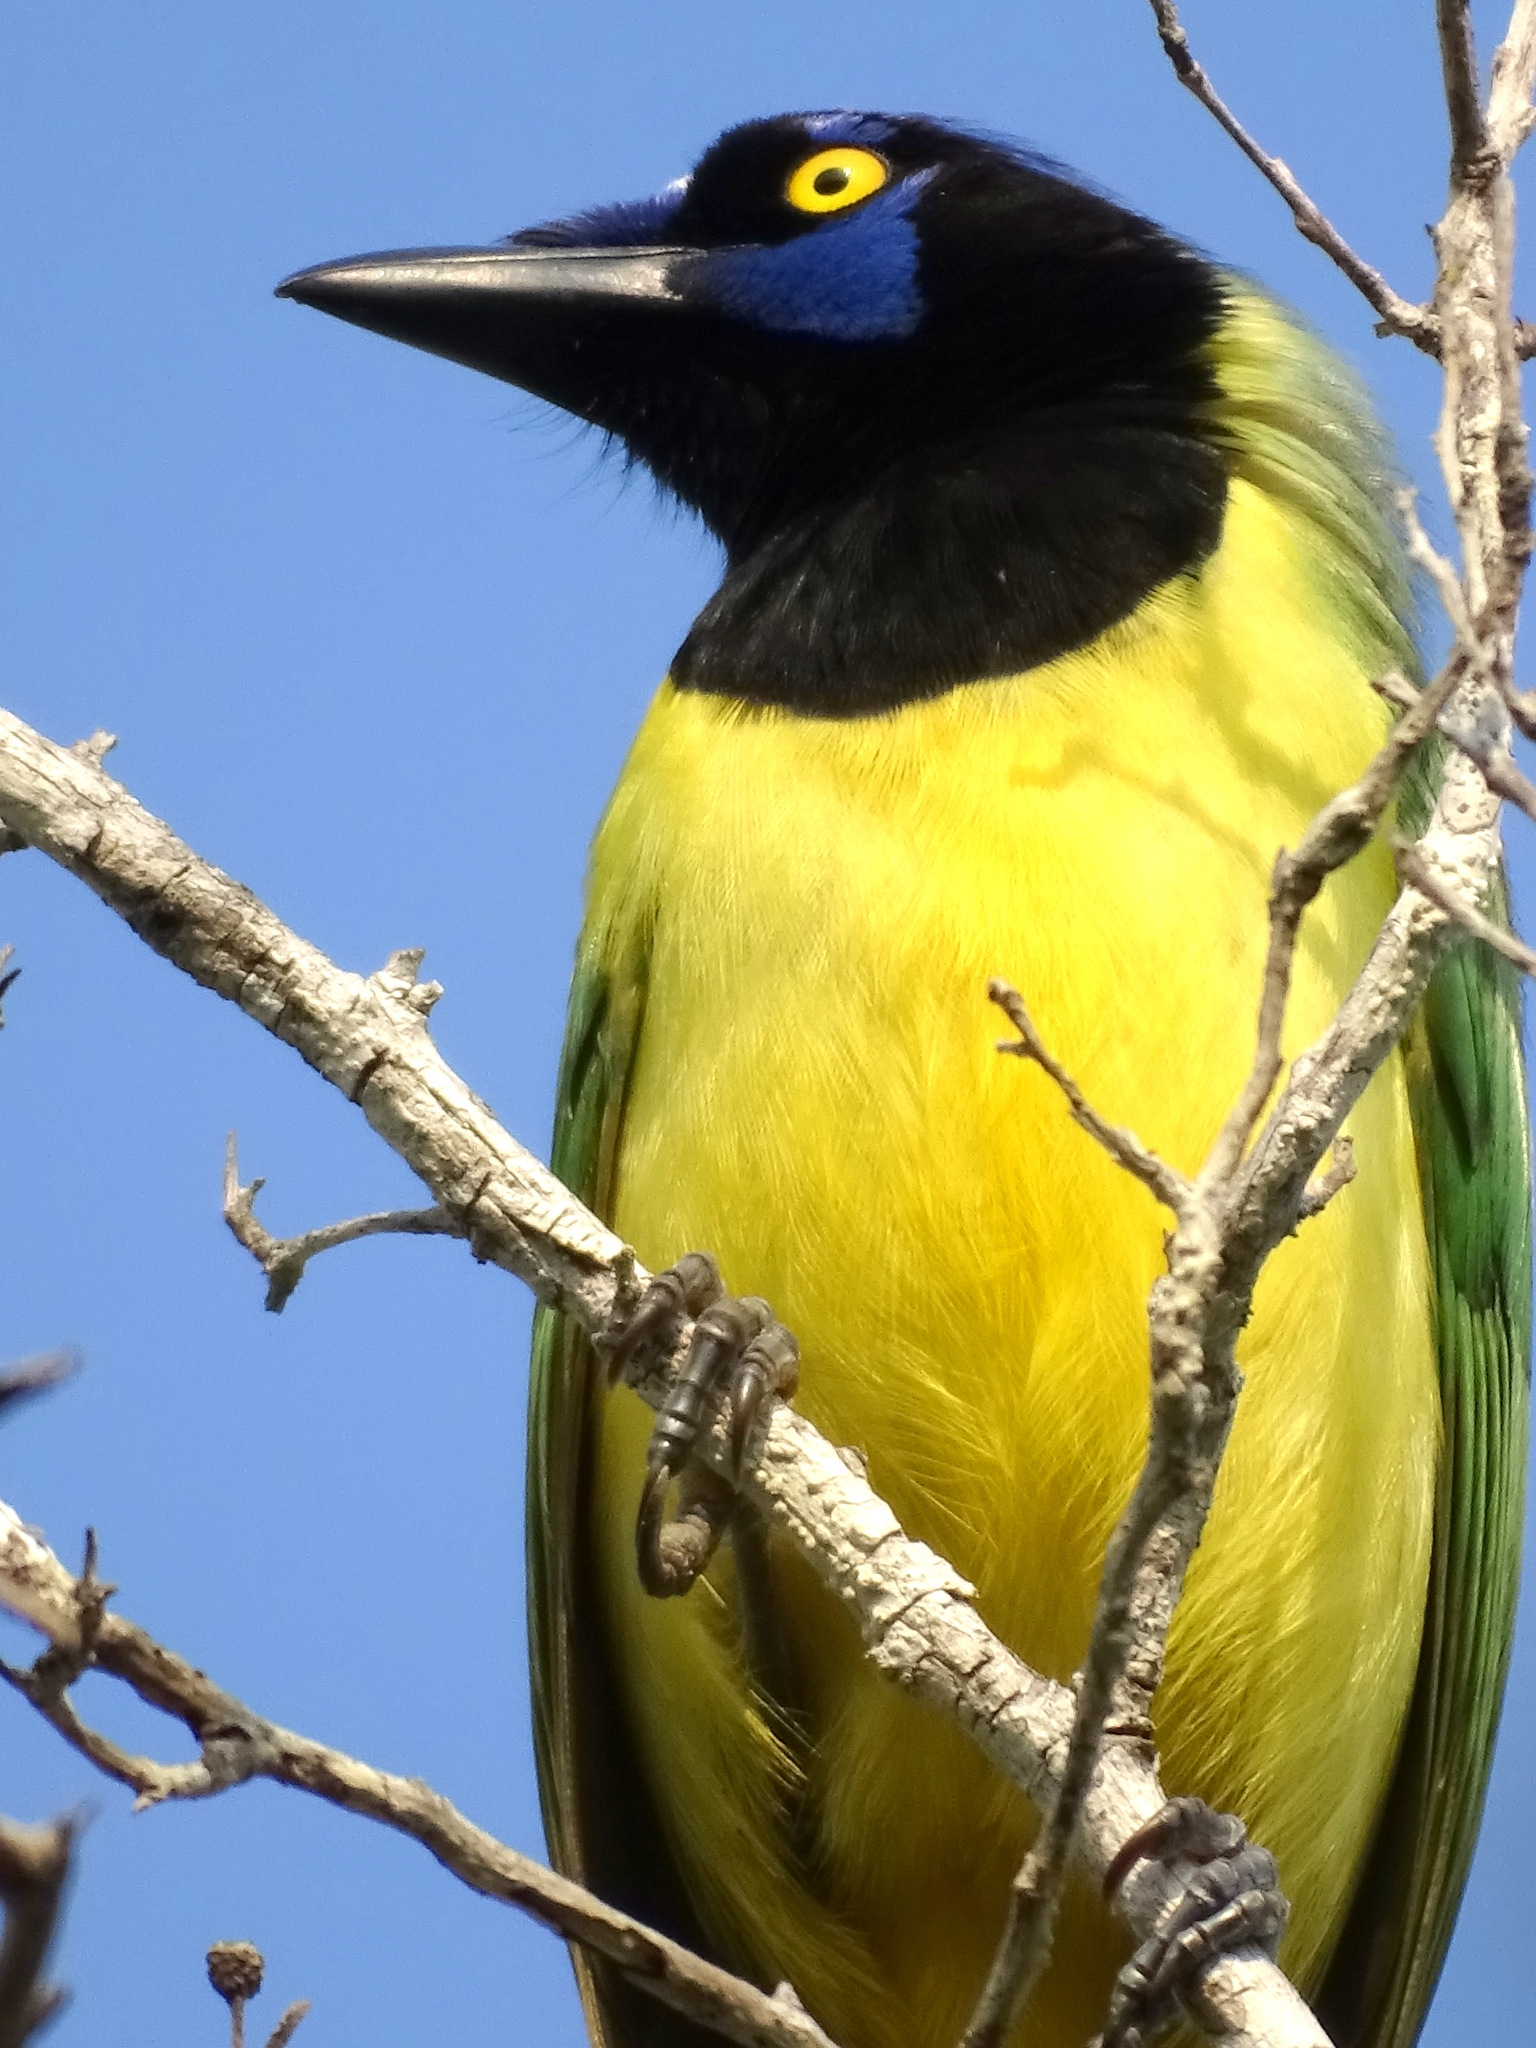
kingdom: Animalia
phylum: Chordata
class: Aves
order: Passeriformes
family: Corvidae
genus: Cyanocorax
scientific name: Cyanocorax yncas
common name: Green jay
